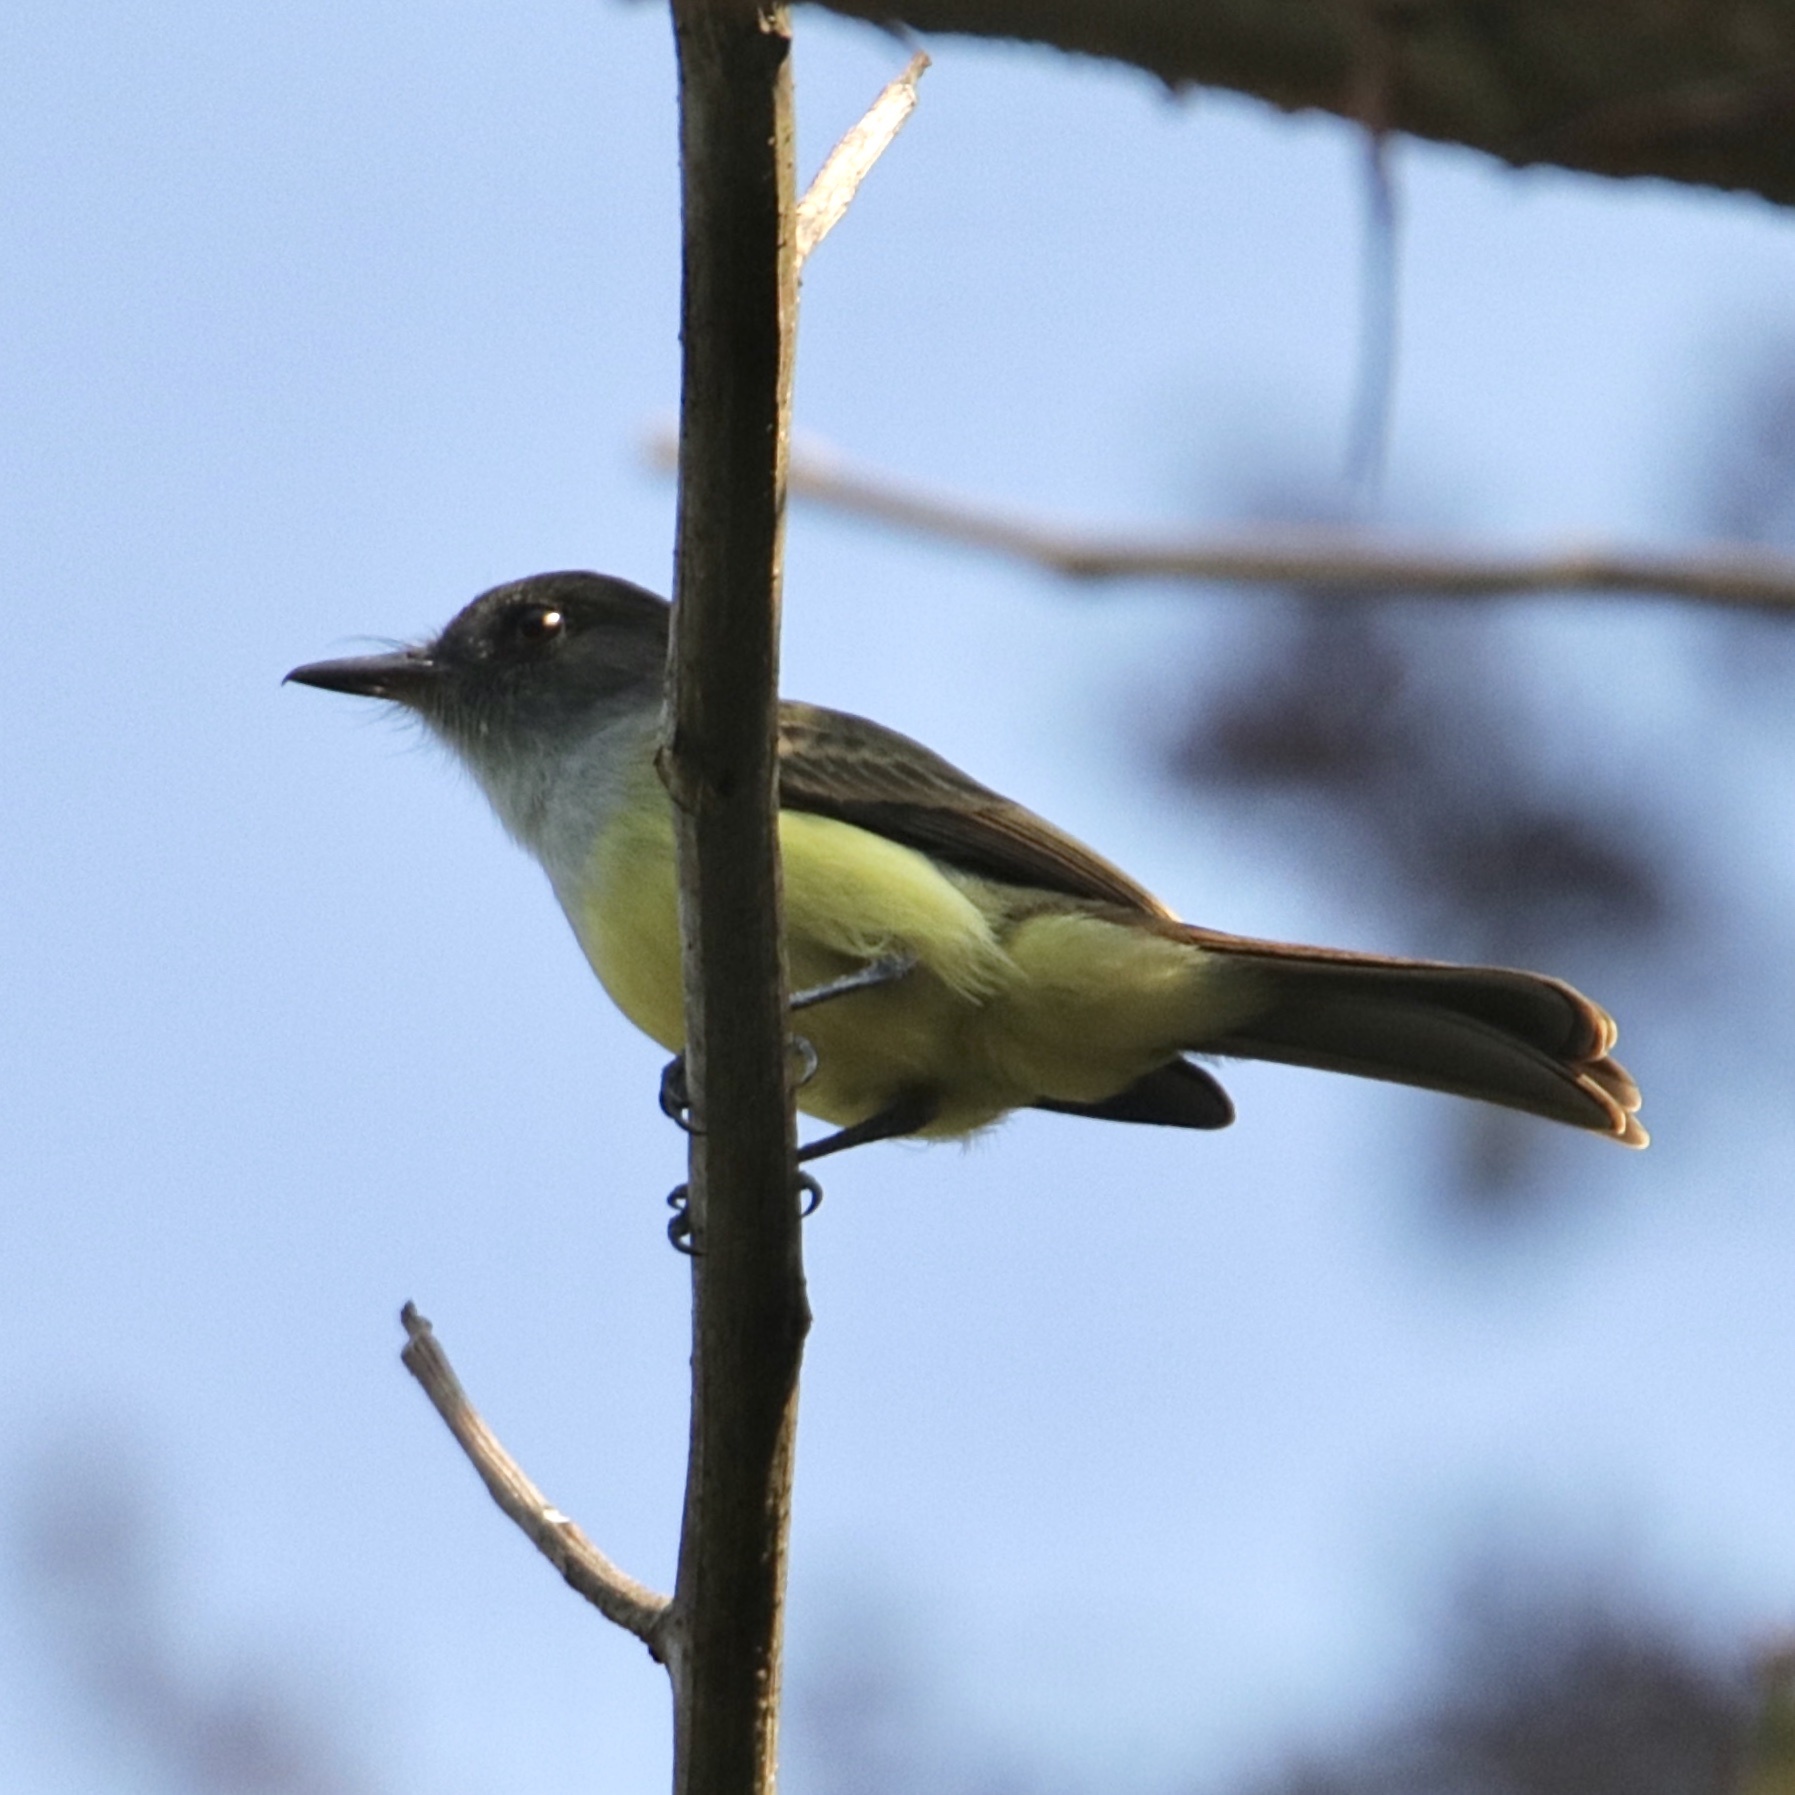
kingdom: Animalia
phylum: Chordata
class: Aves
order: Passeriformes
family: Tyrannidae
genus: Myiarchus
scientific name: Myiarchus tuberculifer
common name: Dusky-capped flycatcher
